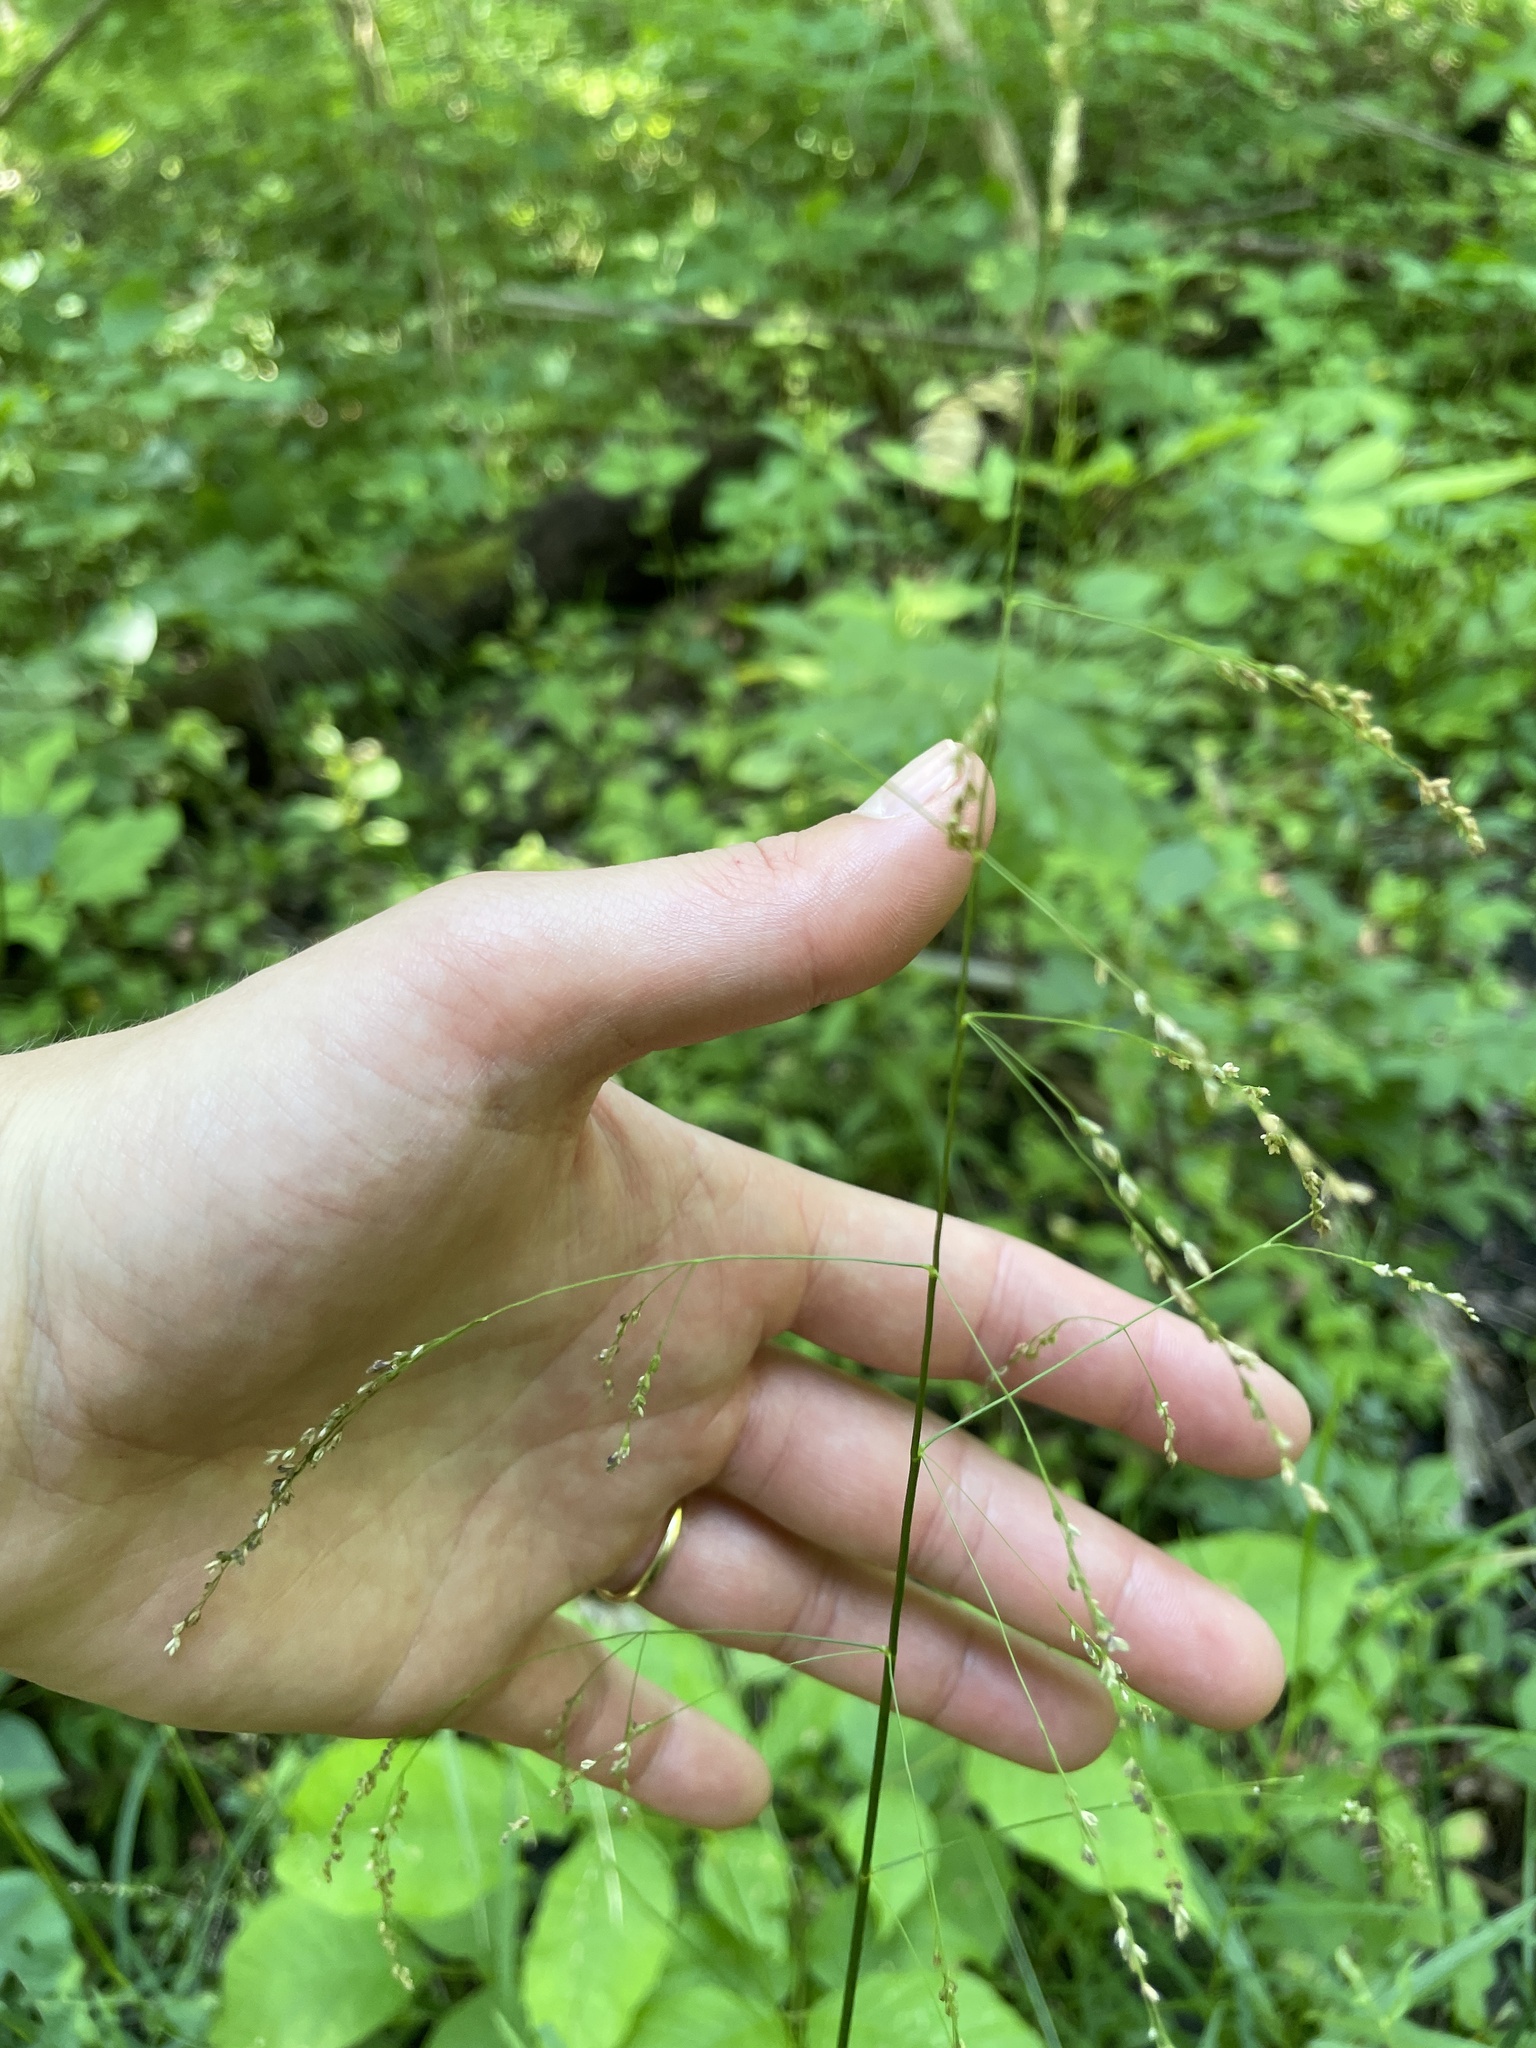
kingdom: Plantae
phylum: Tracheophyta
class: Liliopsida
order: Poales
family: Poaceae
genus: Glyceria
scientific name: Glyceria striata
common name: Fowl manna grass
